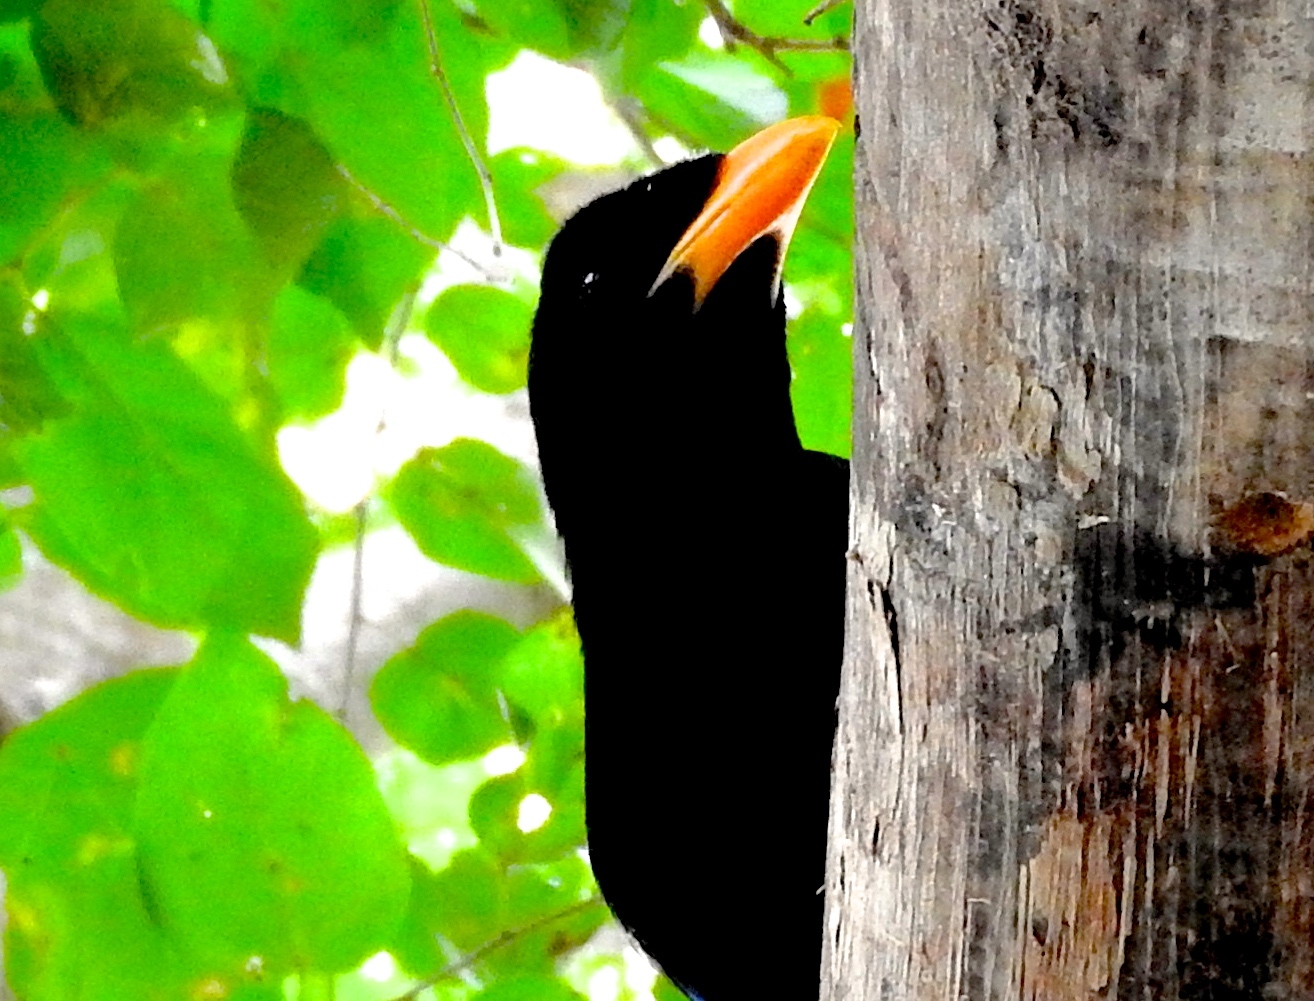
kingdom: Animalia
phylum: Chordata
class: Aves
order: Passeriformes
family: Corvidae
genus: Cyanocorax
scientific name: Cyanocorax beecheii
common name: Purplish-backed jay
